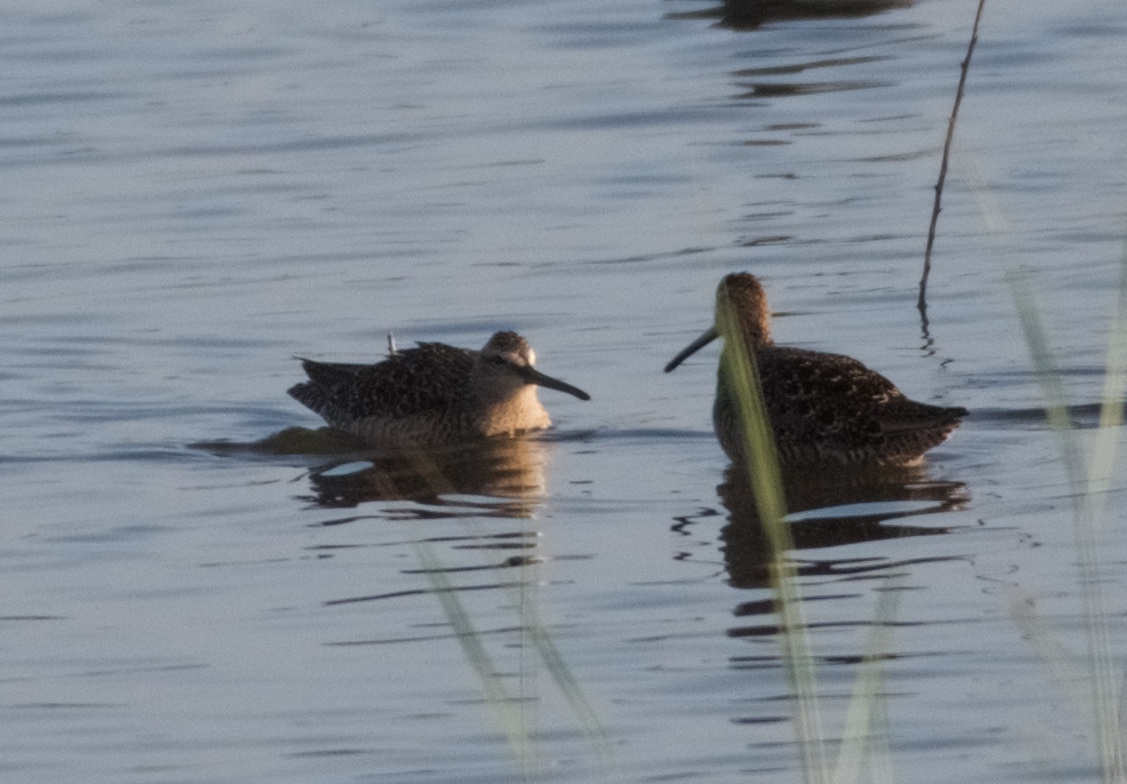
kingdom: Animalia
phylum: Chordata
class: Aves
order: Charadriiformes
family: Scolopacidae
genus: Limnodromus
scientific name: Limnodromus scolopaceus
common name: Long-billed dowitcher
